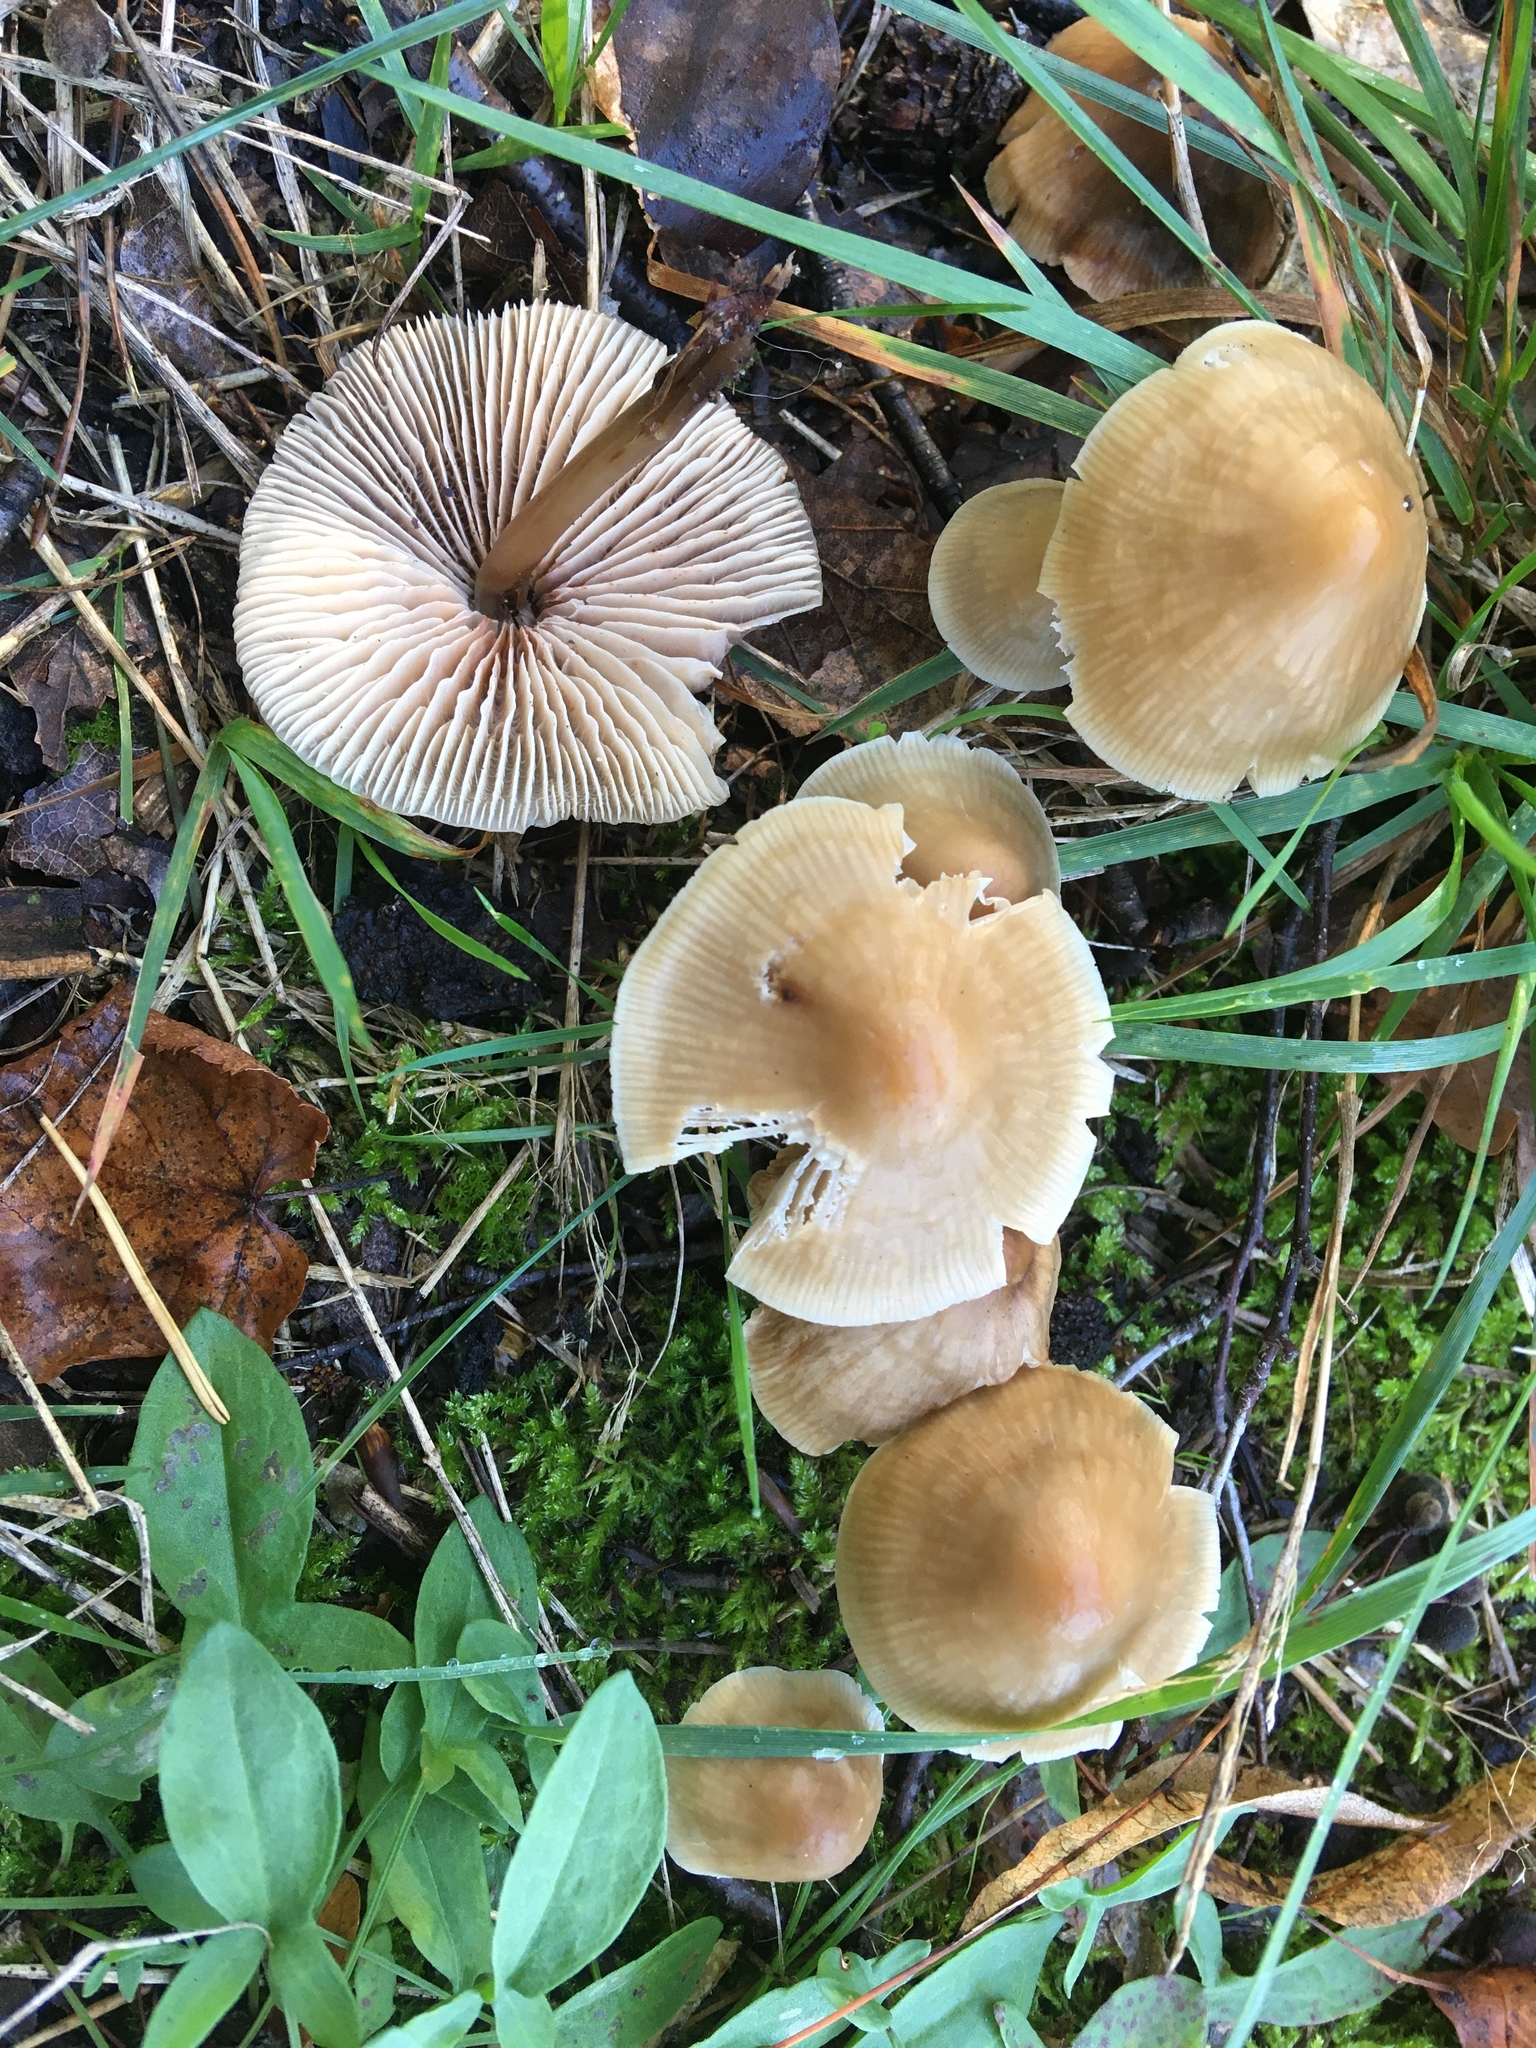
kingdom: Fungi
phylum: Basidiomycota
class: Agaricomycetes
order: Agaricales
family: Mycenaceae
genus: Mycena
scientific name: Mycena galericulata
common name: Bonnet mycena
